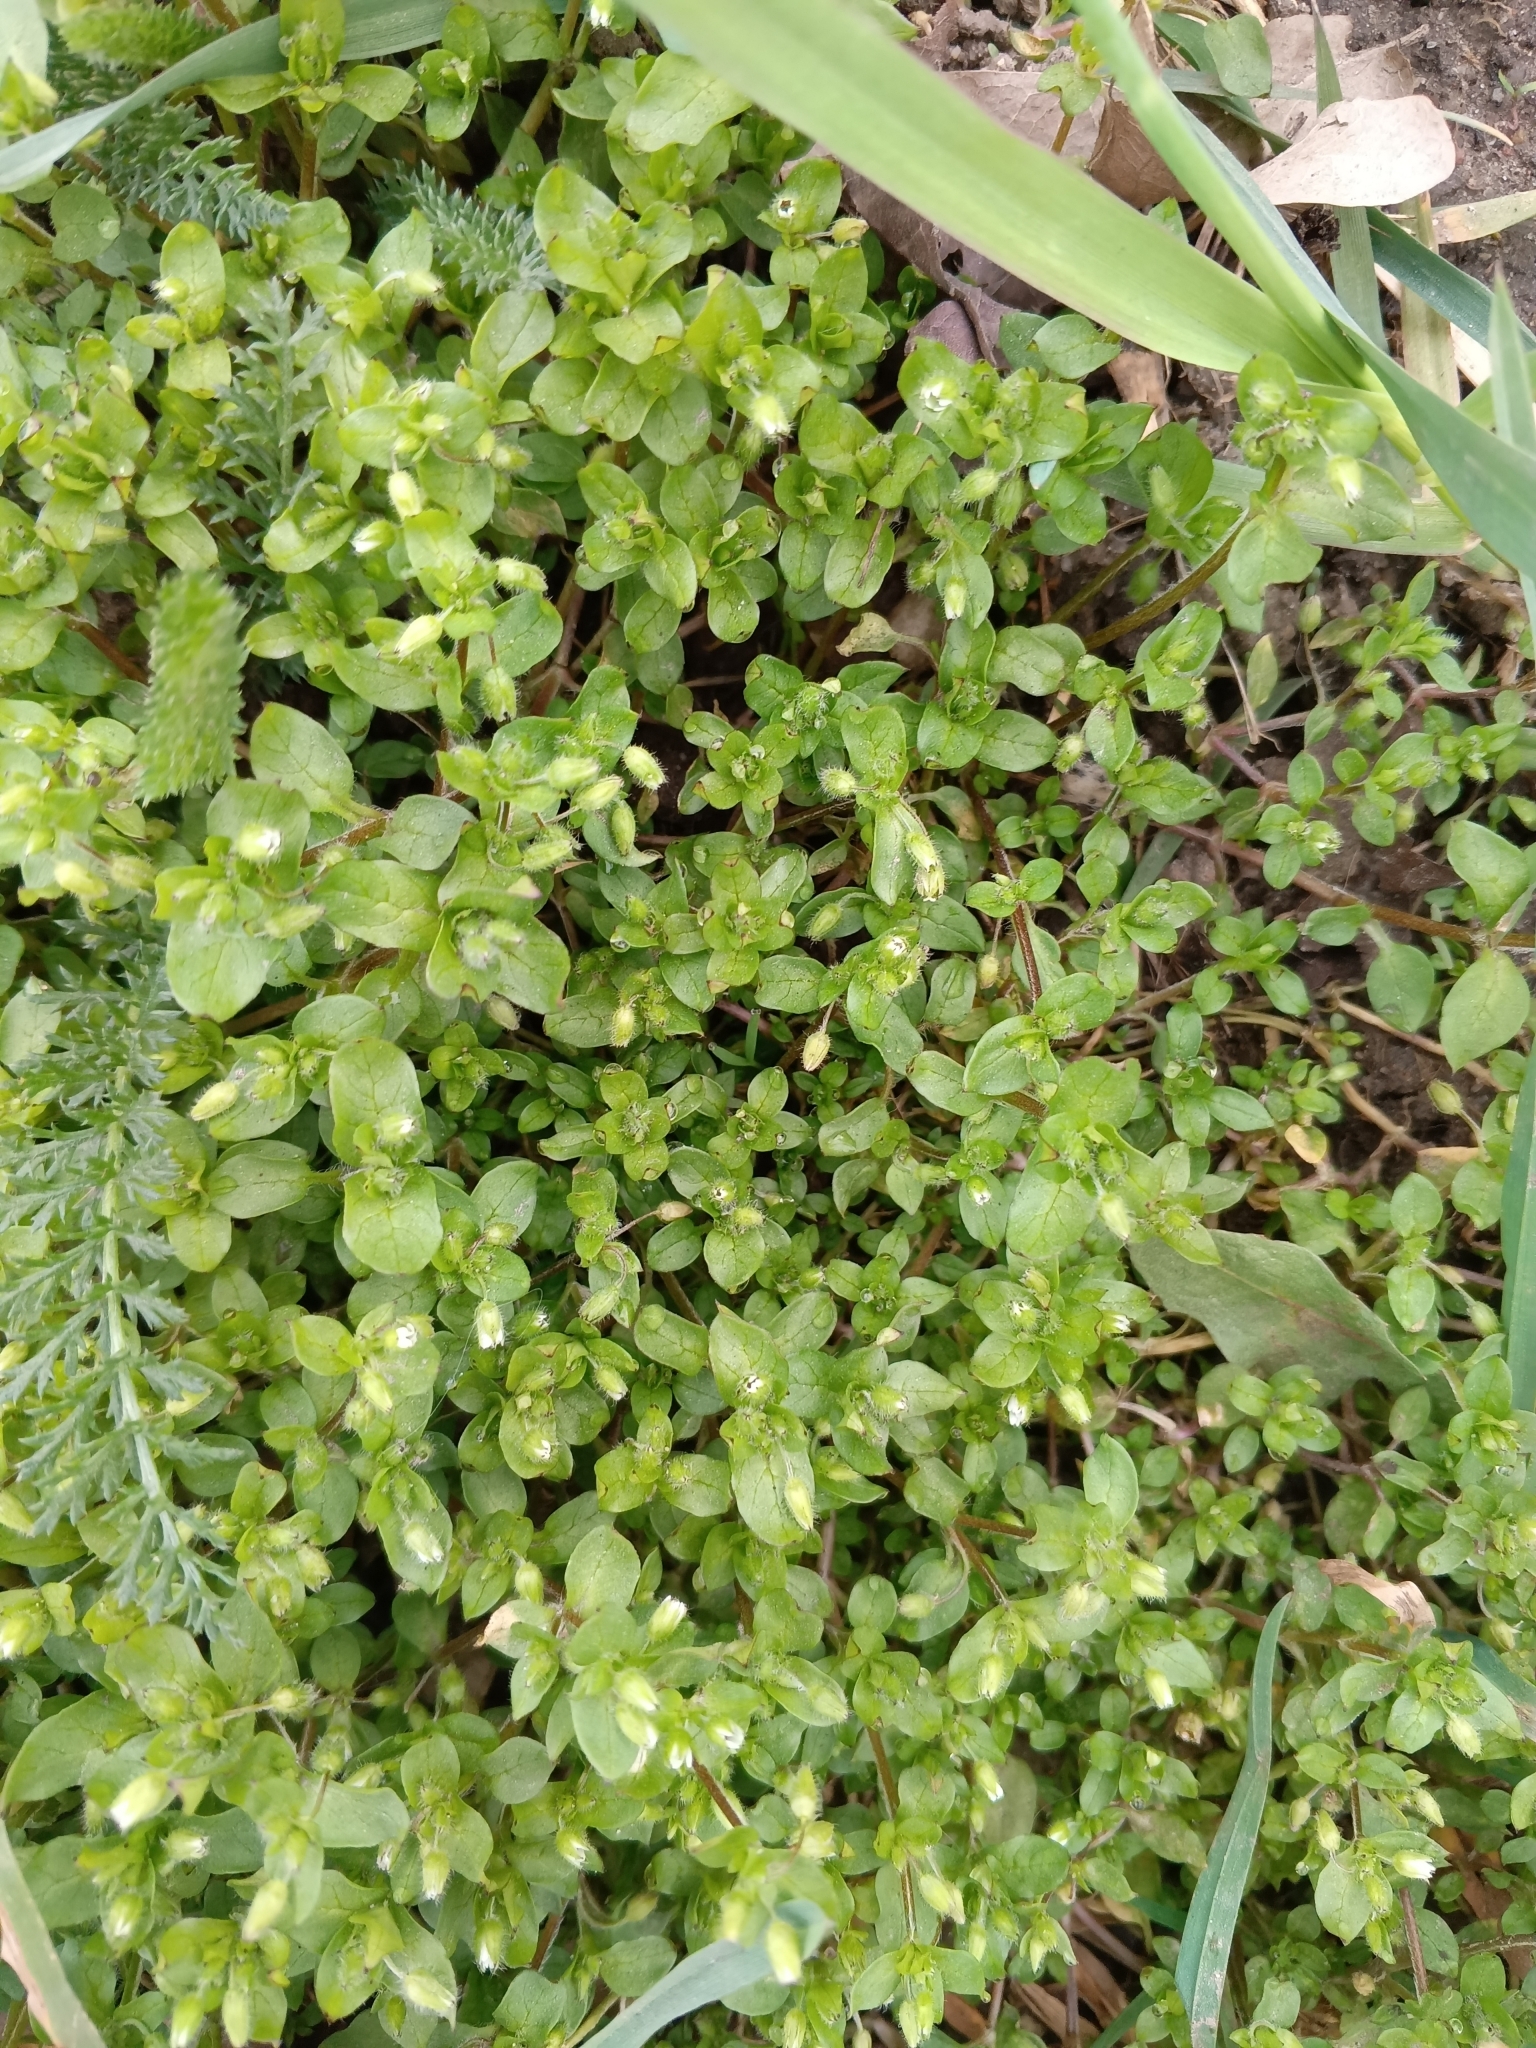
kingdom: Plantae
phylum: Tracheophyta
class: Magnoliopsida
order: Caryophyllales
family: Caryophyllaceae
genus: Stellaria
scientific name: Stellaria media
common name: Common chickweed
